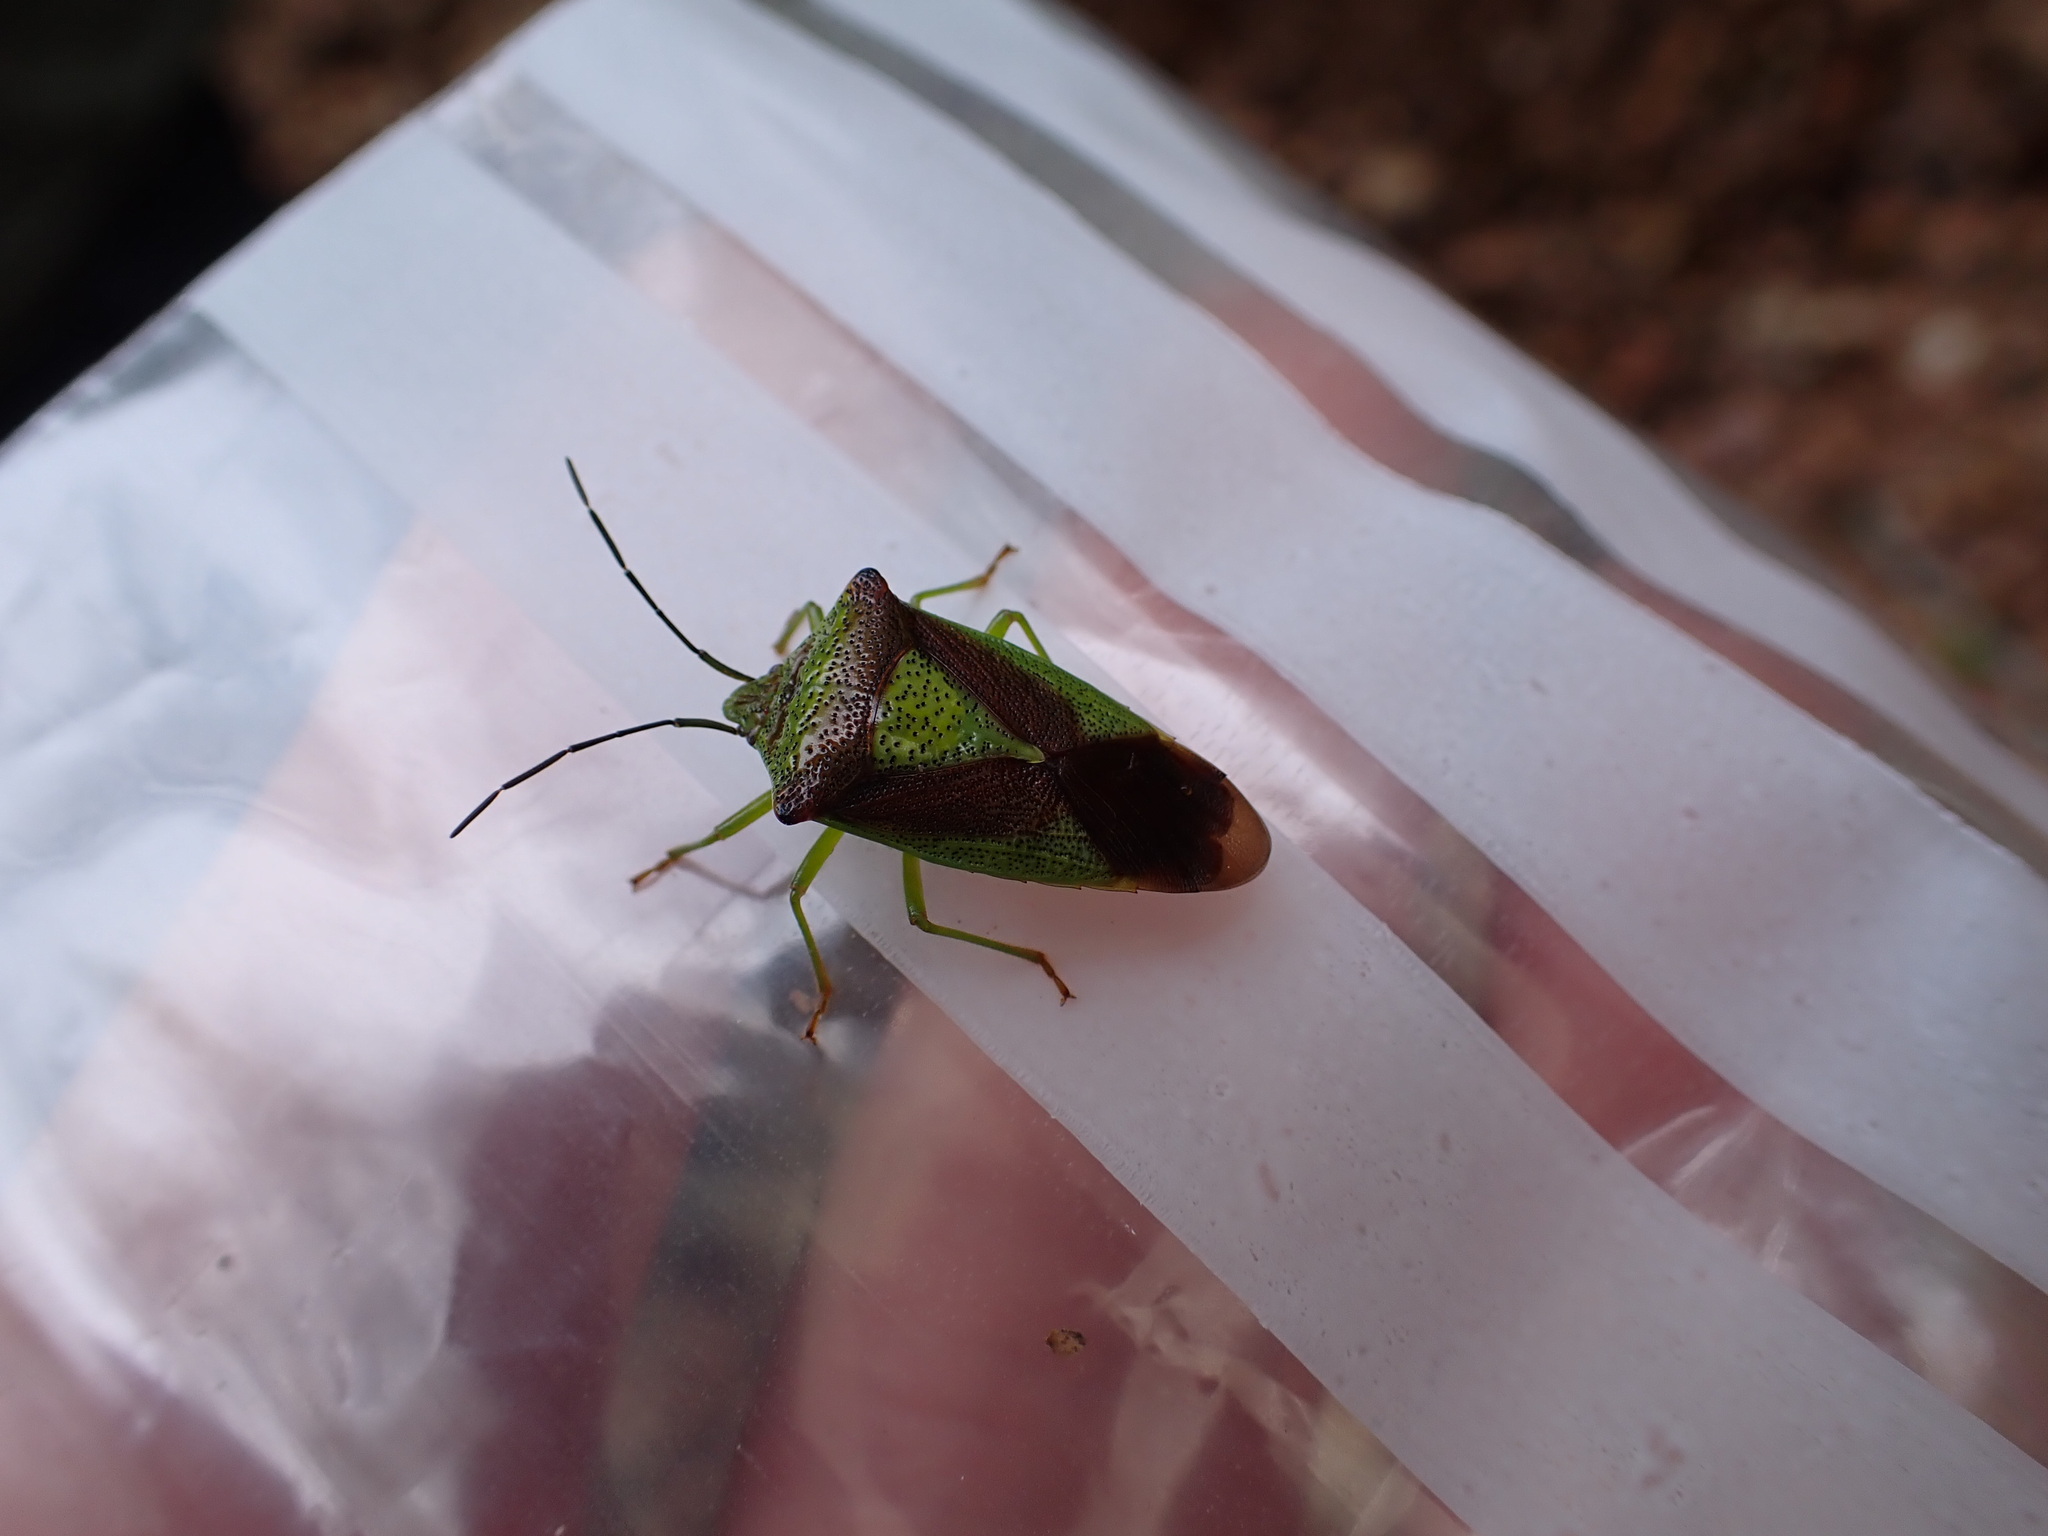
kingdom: Animalia
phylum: Arthropoda
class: Insecta
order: Hemiptera
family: Acanthosomatidae
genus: Acanthosoma
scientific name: Acanthosoma haemorrhoidale
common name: Hawthorn shieldbug
